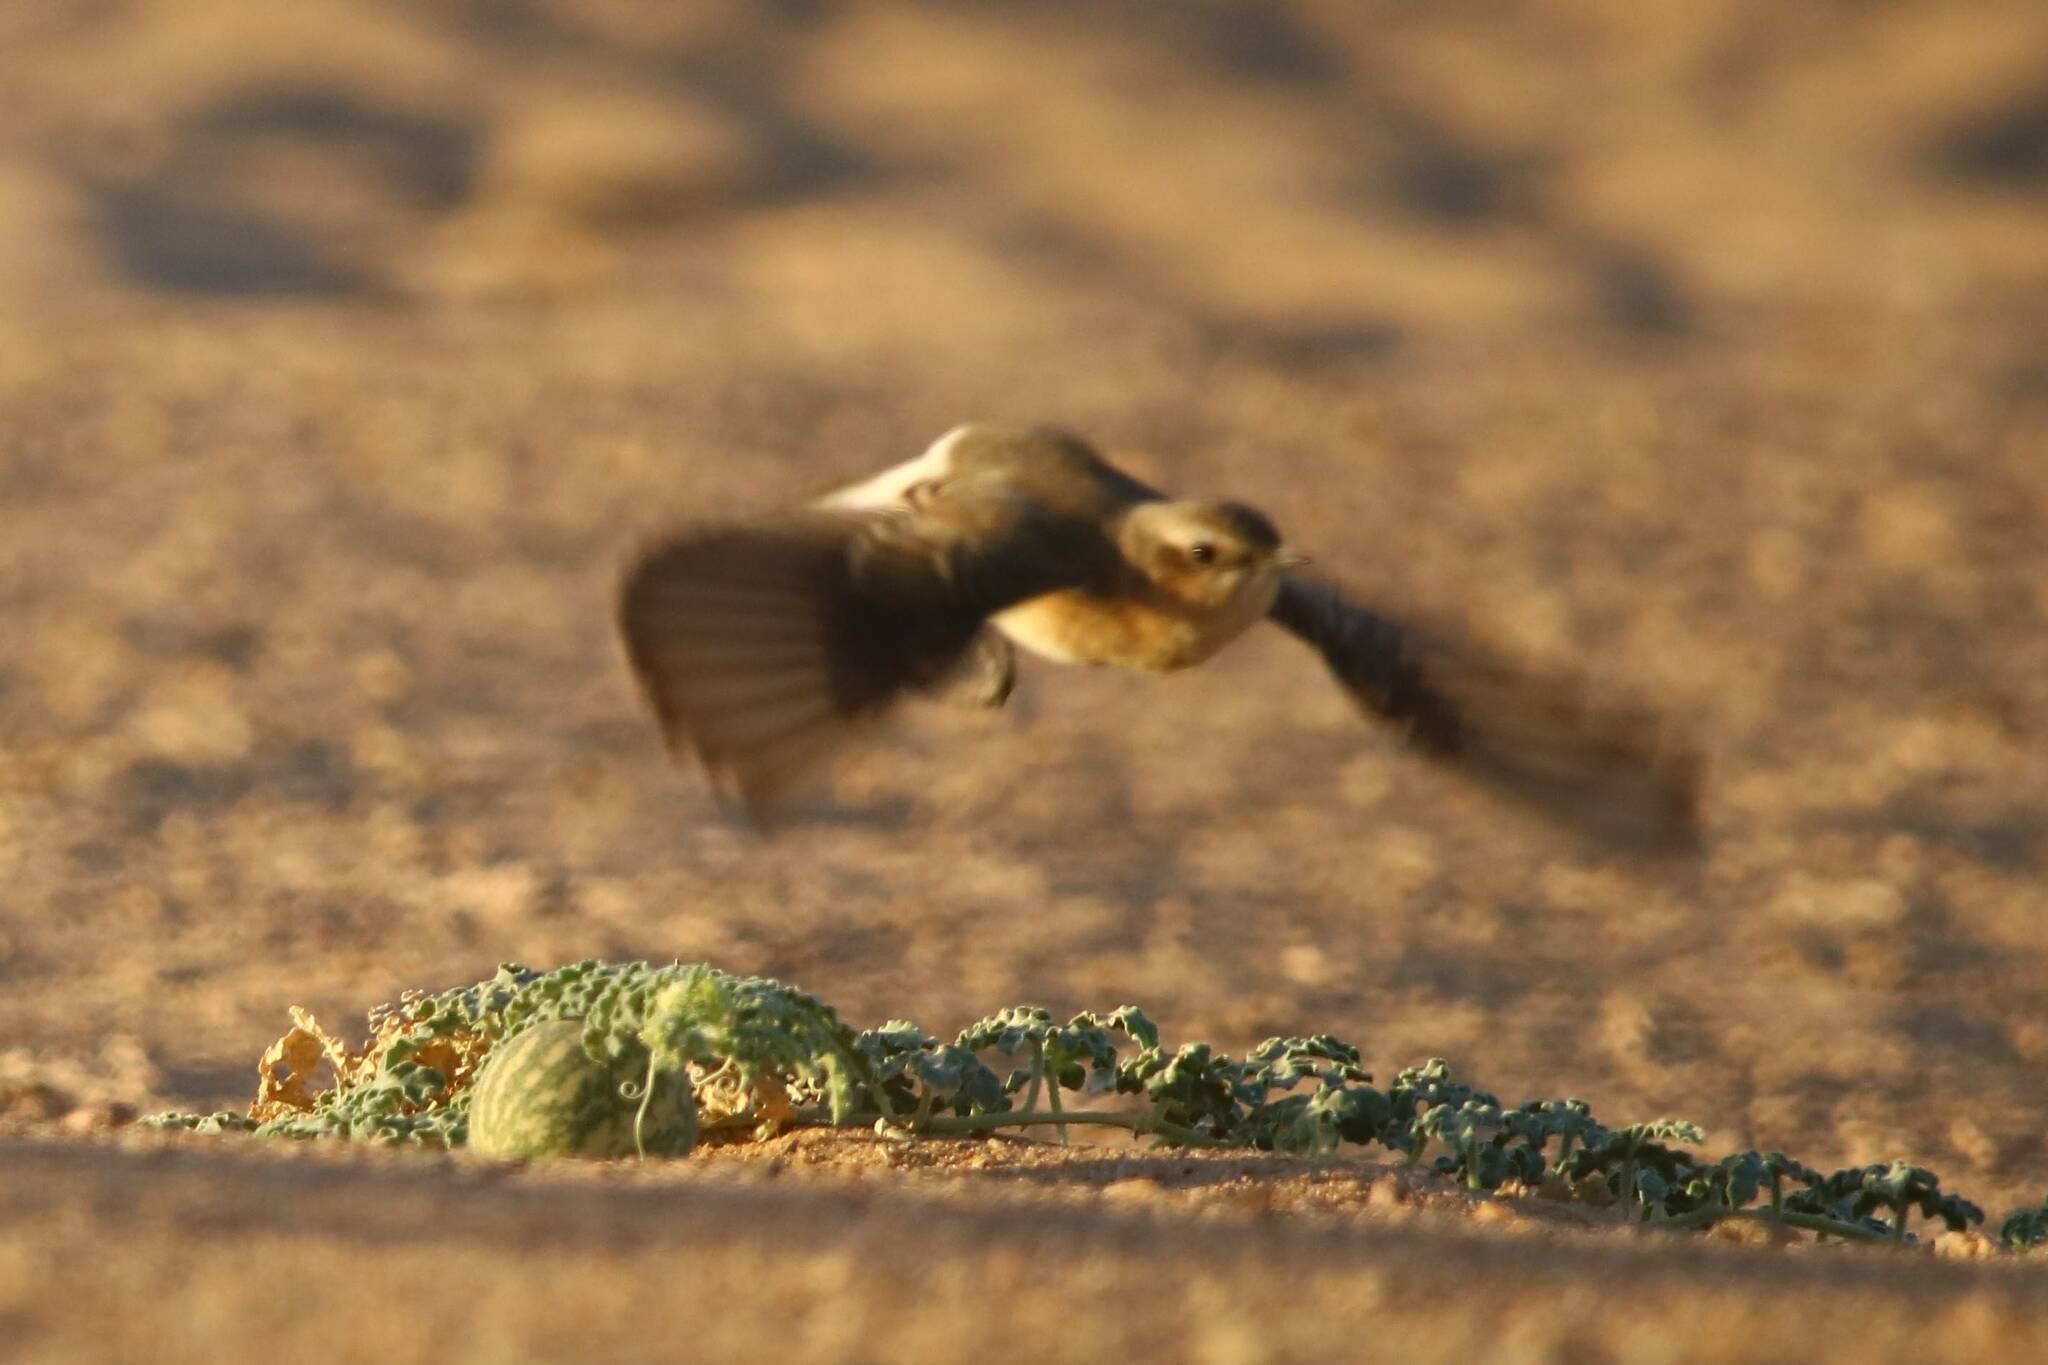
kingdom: Animalia
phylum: Chordata
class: Aves
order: Passeriformes
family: Muscicapidae
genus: Oenanthe
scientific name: Oenanthe oenanthe
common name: Northern wheatear
